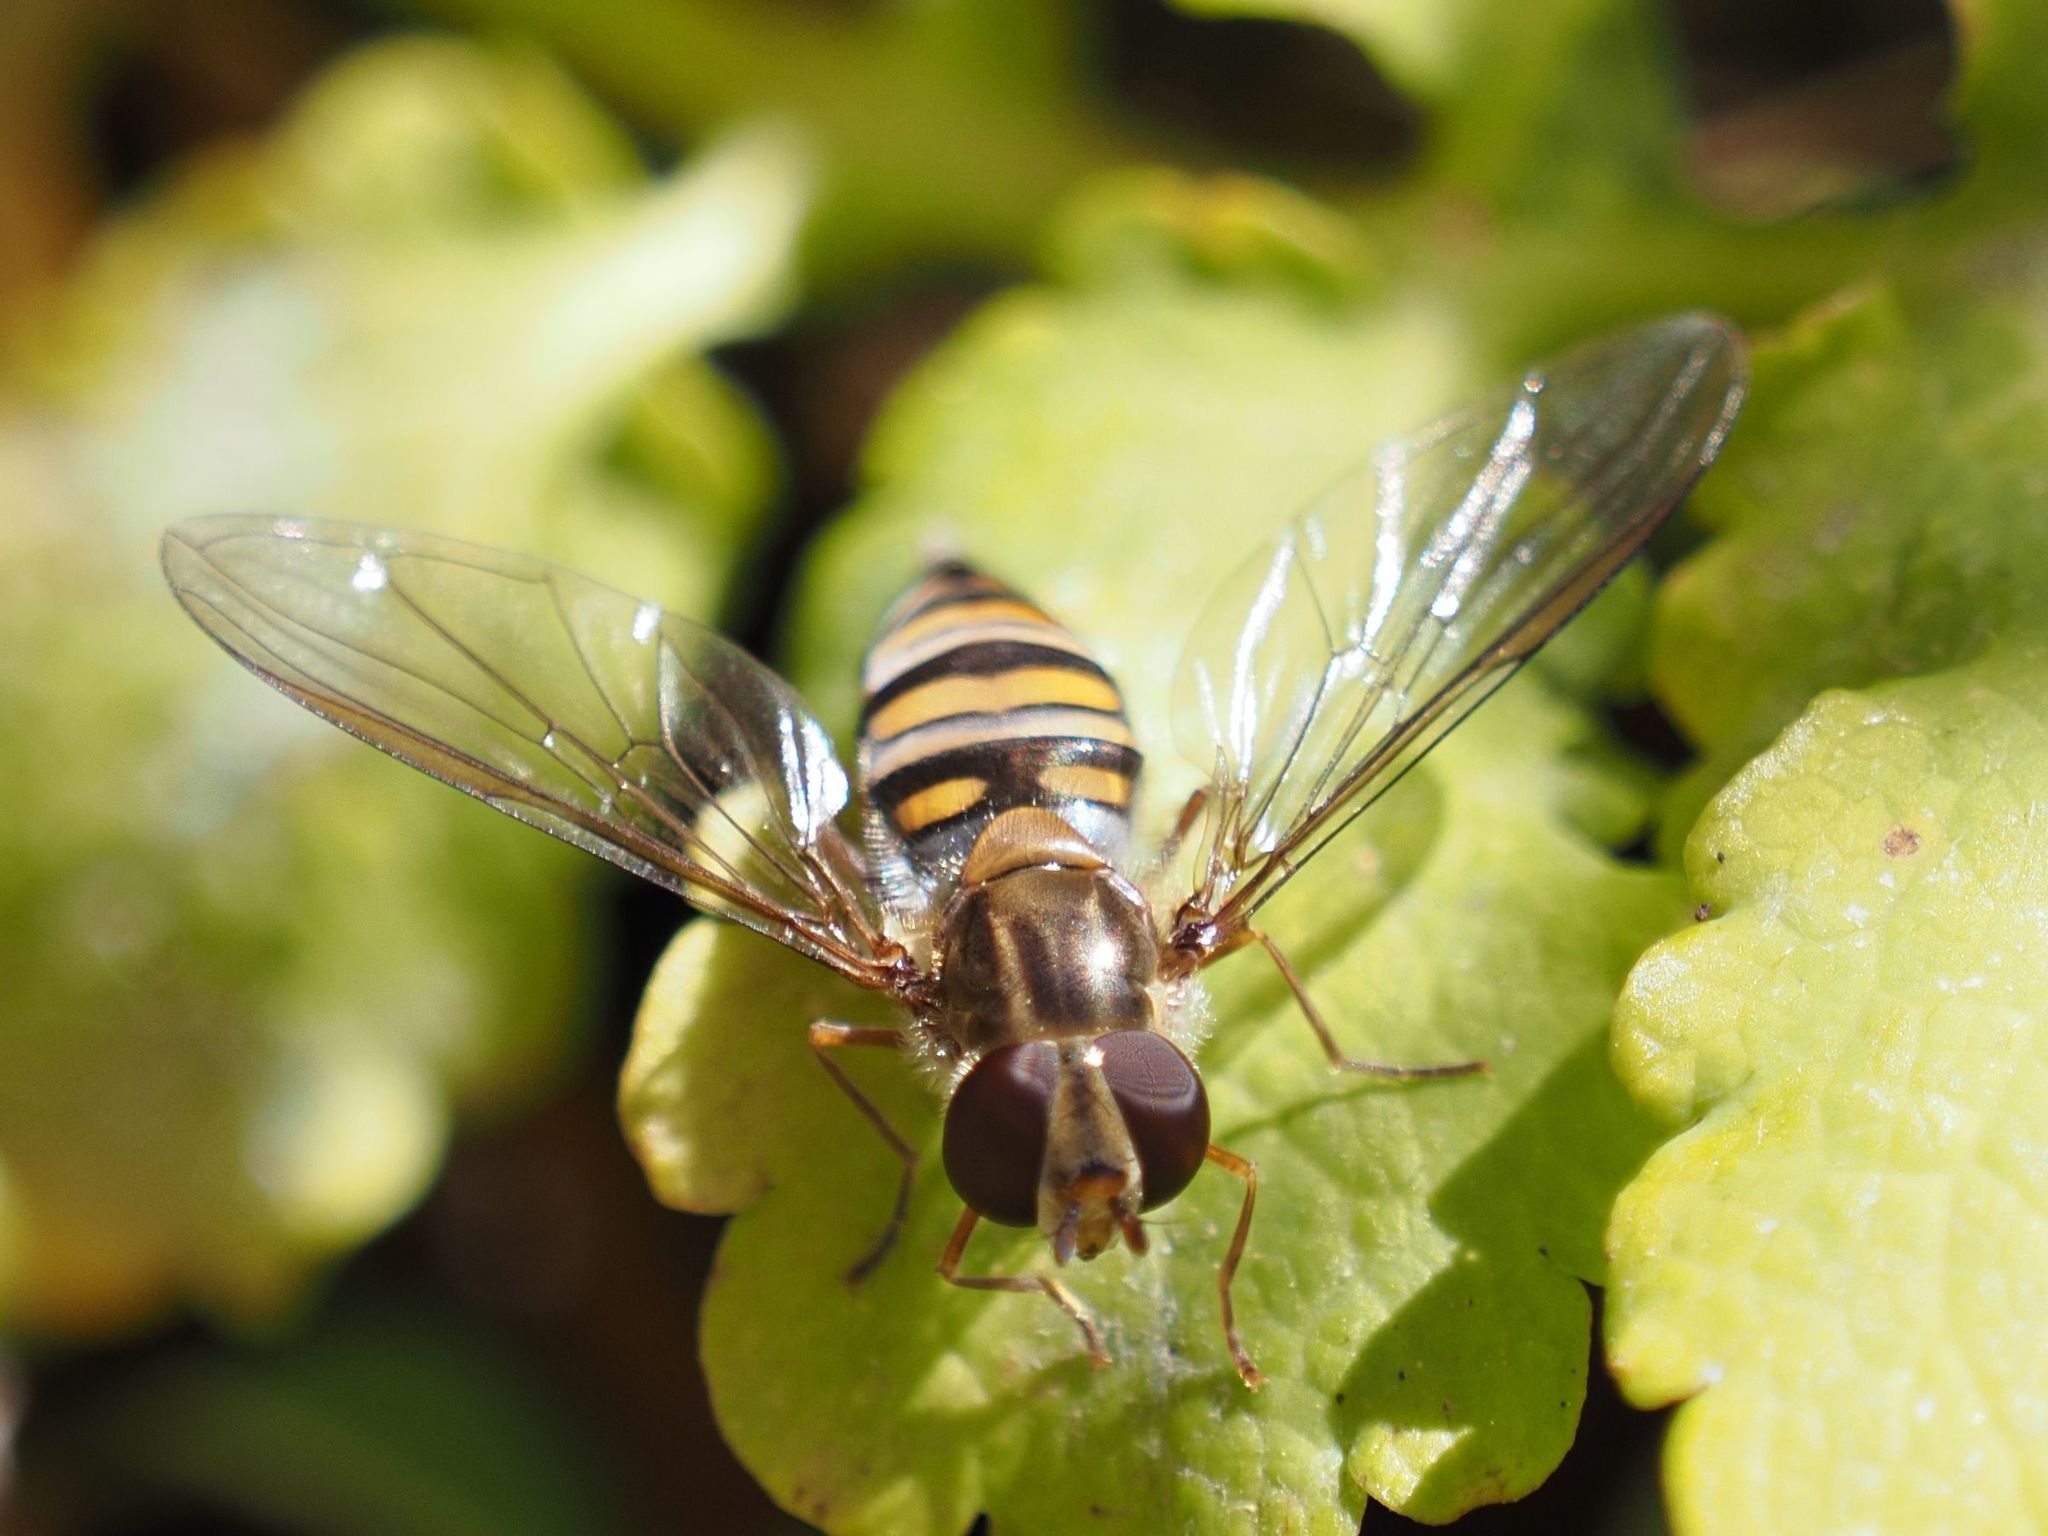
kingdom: Animalia
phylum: Arthropoda
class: Insecta
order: Diptera
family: Syrphidae
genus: Episyrphus
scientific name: Episyrphus balteatus
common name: Marmalade hoverfly
